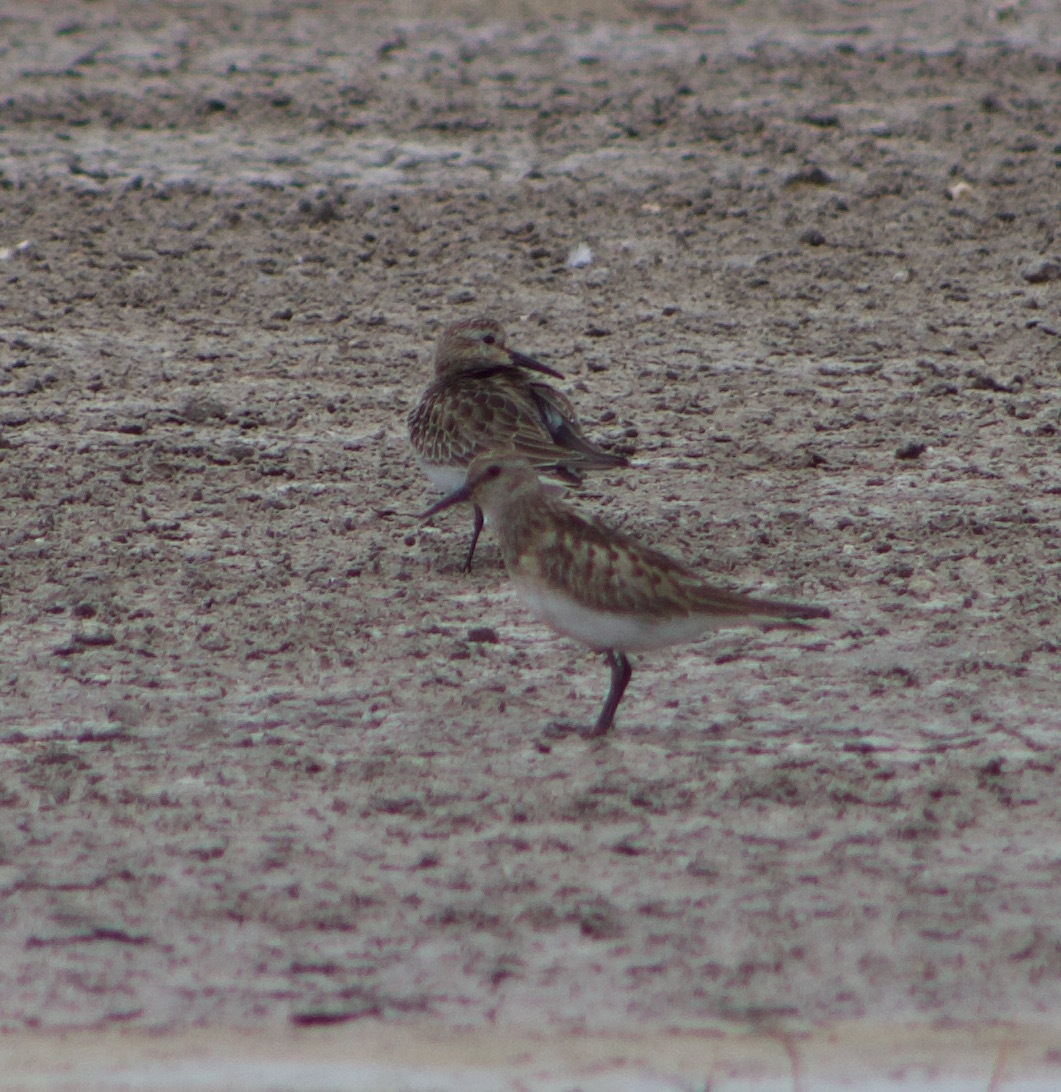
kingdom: Animalia
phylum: Chordata
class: Aves
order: Charadriiformes
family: Scolopacidae
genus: Calidris
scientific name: Calidris bairdii
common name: Baird's sandpiper
